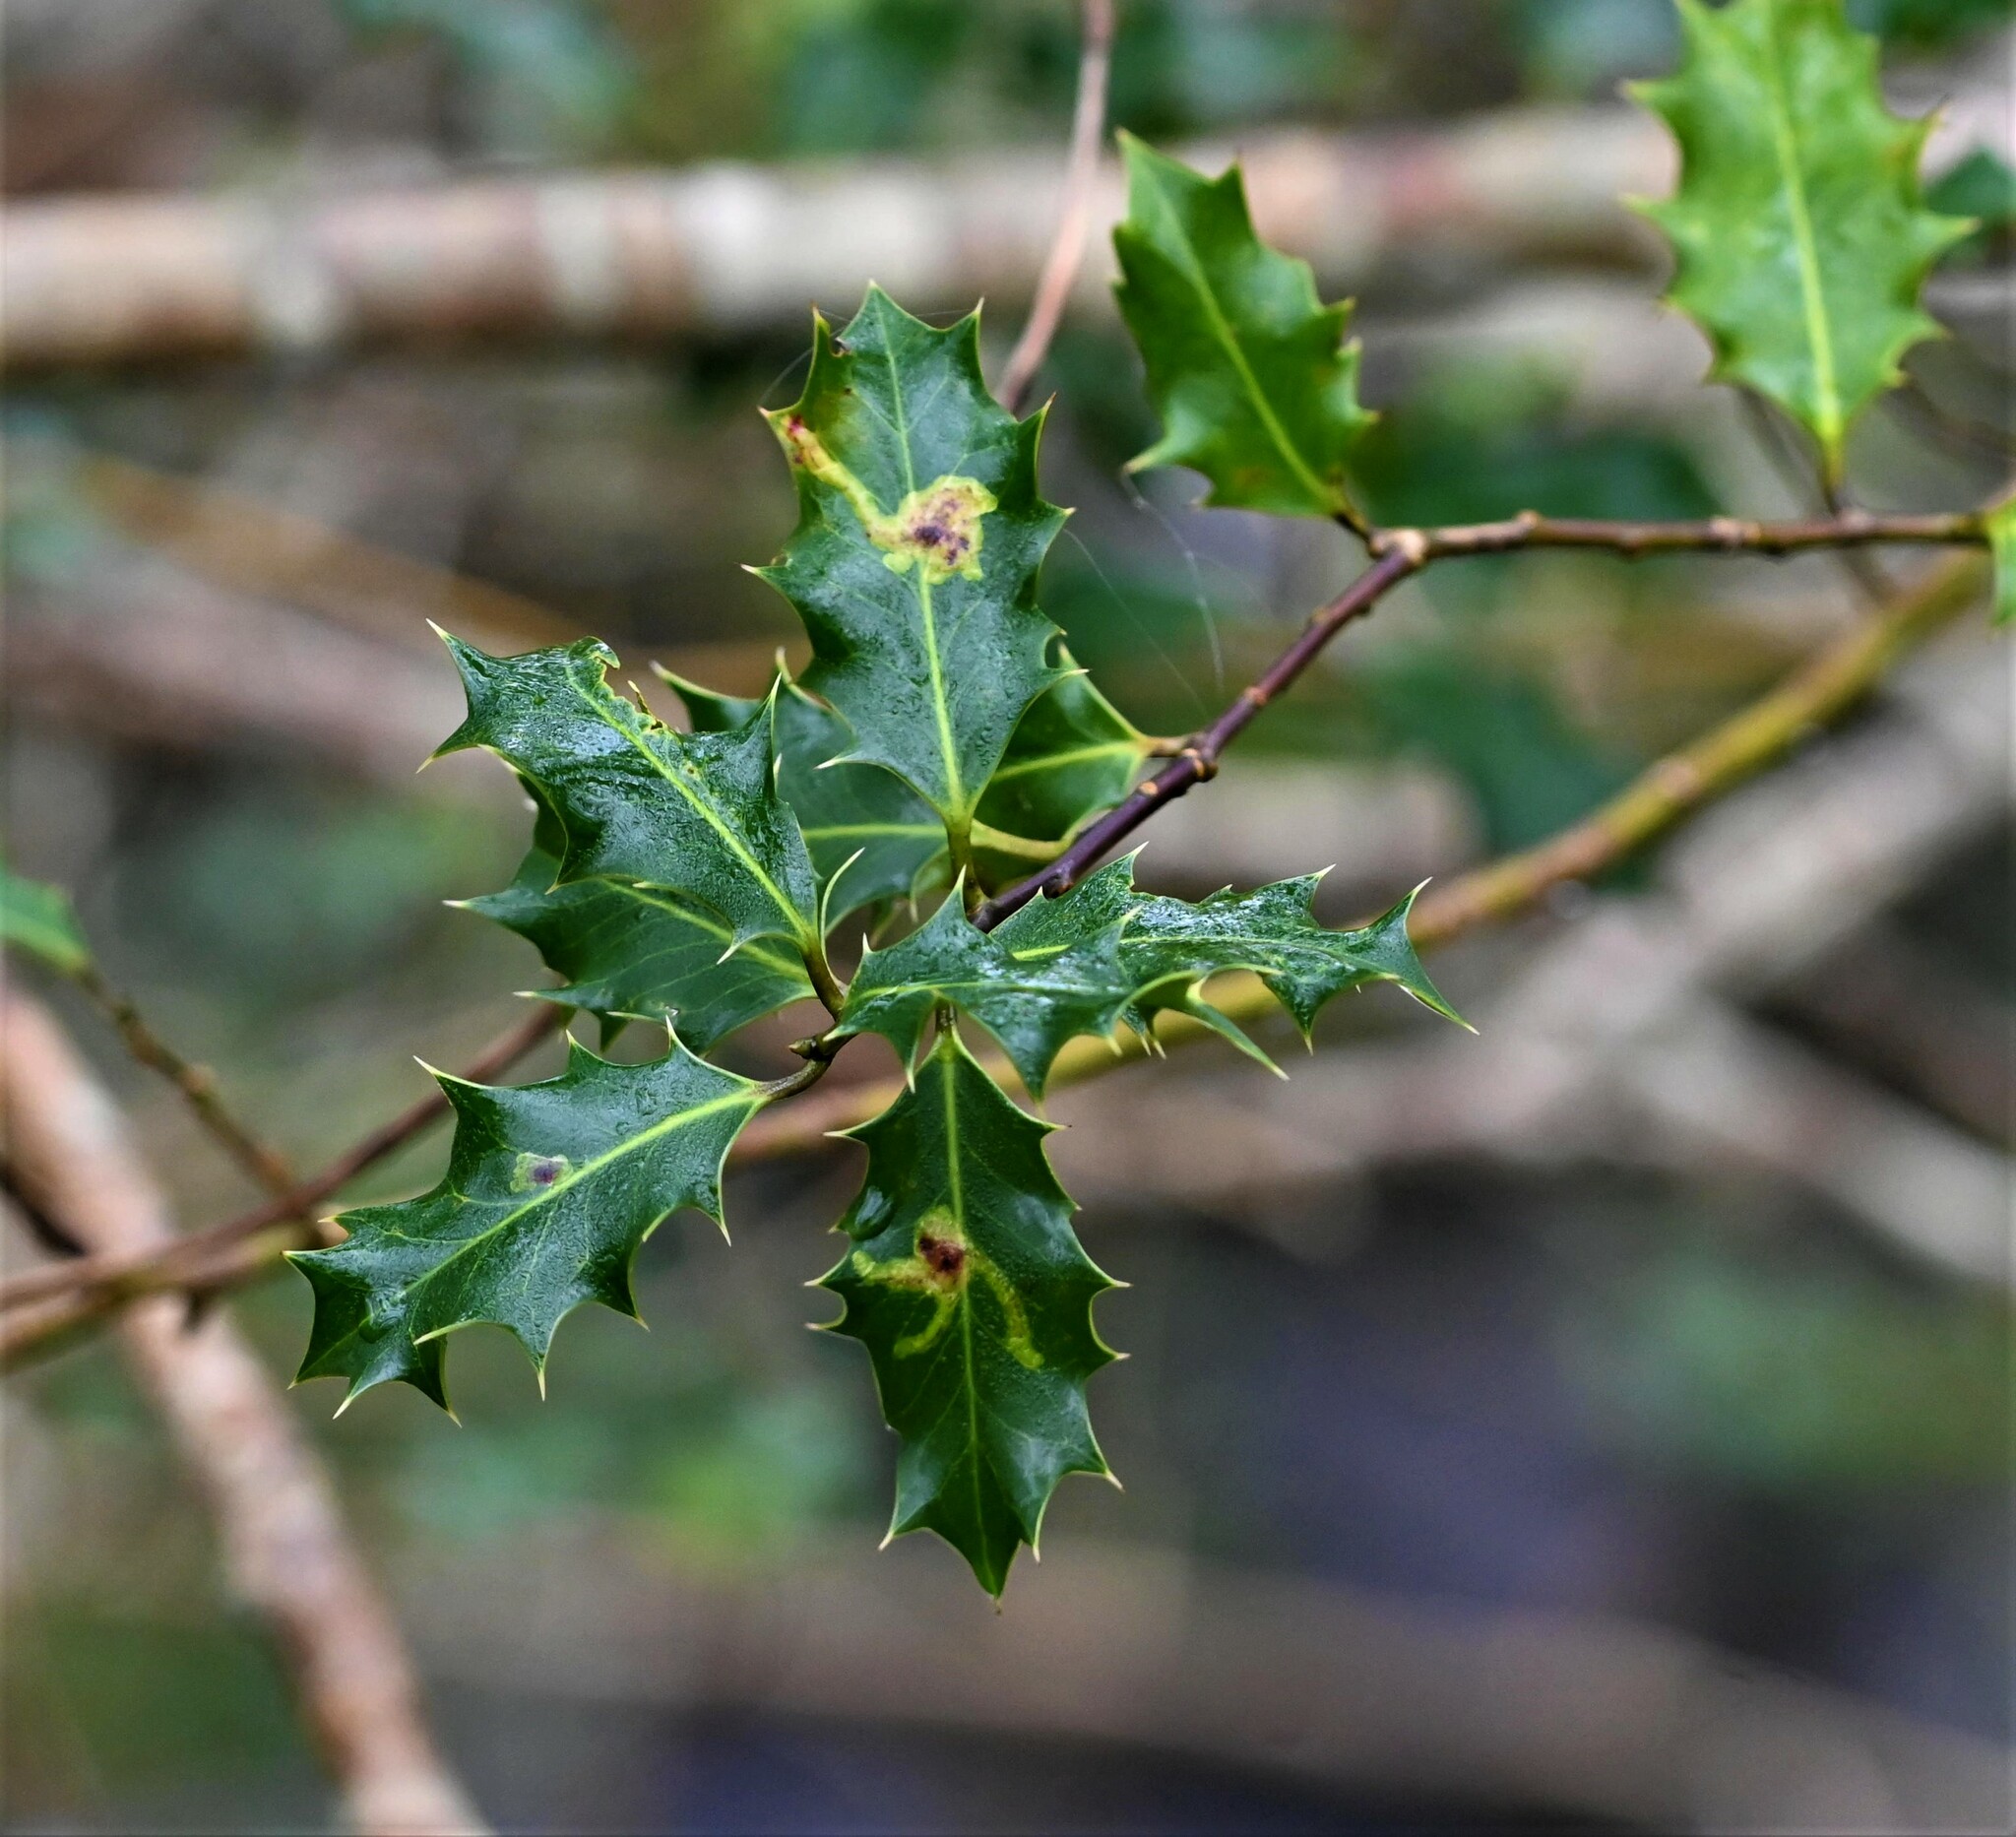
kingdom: Animalia
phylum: Arthropoda
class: Insecta
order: Diptera
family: Agromyzidae
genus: Phytomyza
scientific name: Phytomyza ilicis
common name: Holly leafminer
